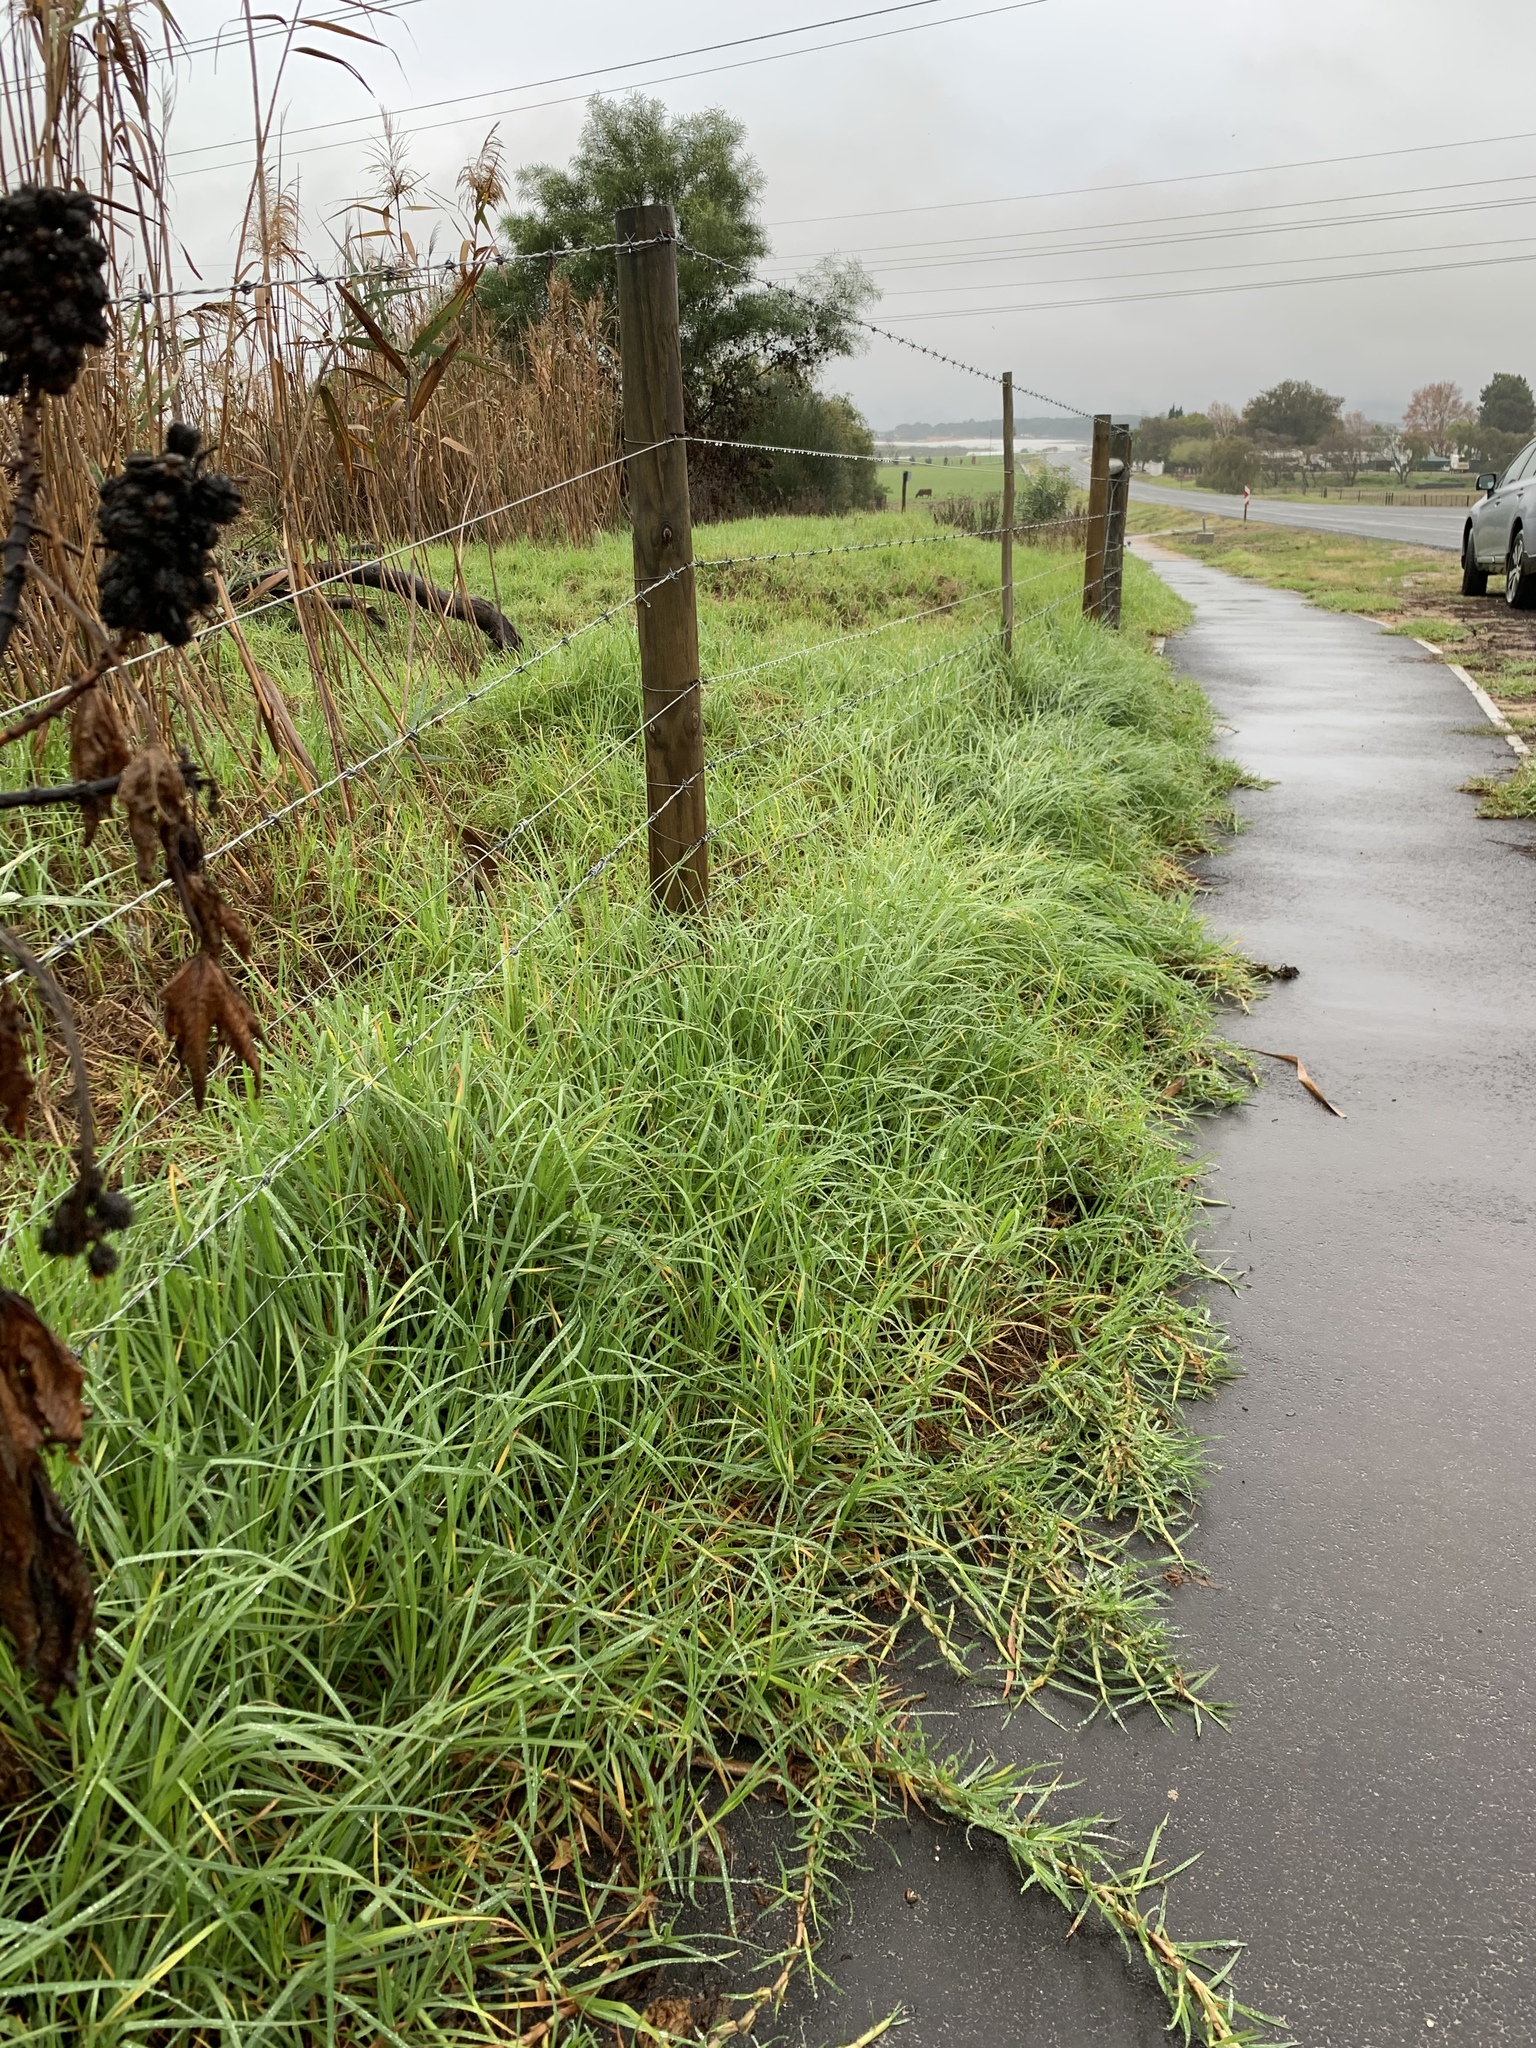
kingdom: Plantae
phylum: Tracheophyta
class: Liliopsida
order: Poales
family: Poaceae
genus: Cenchrus
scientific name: Cenchrus clandestinus
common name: Kikuyugrass
